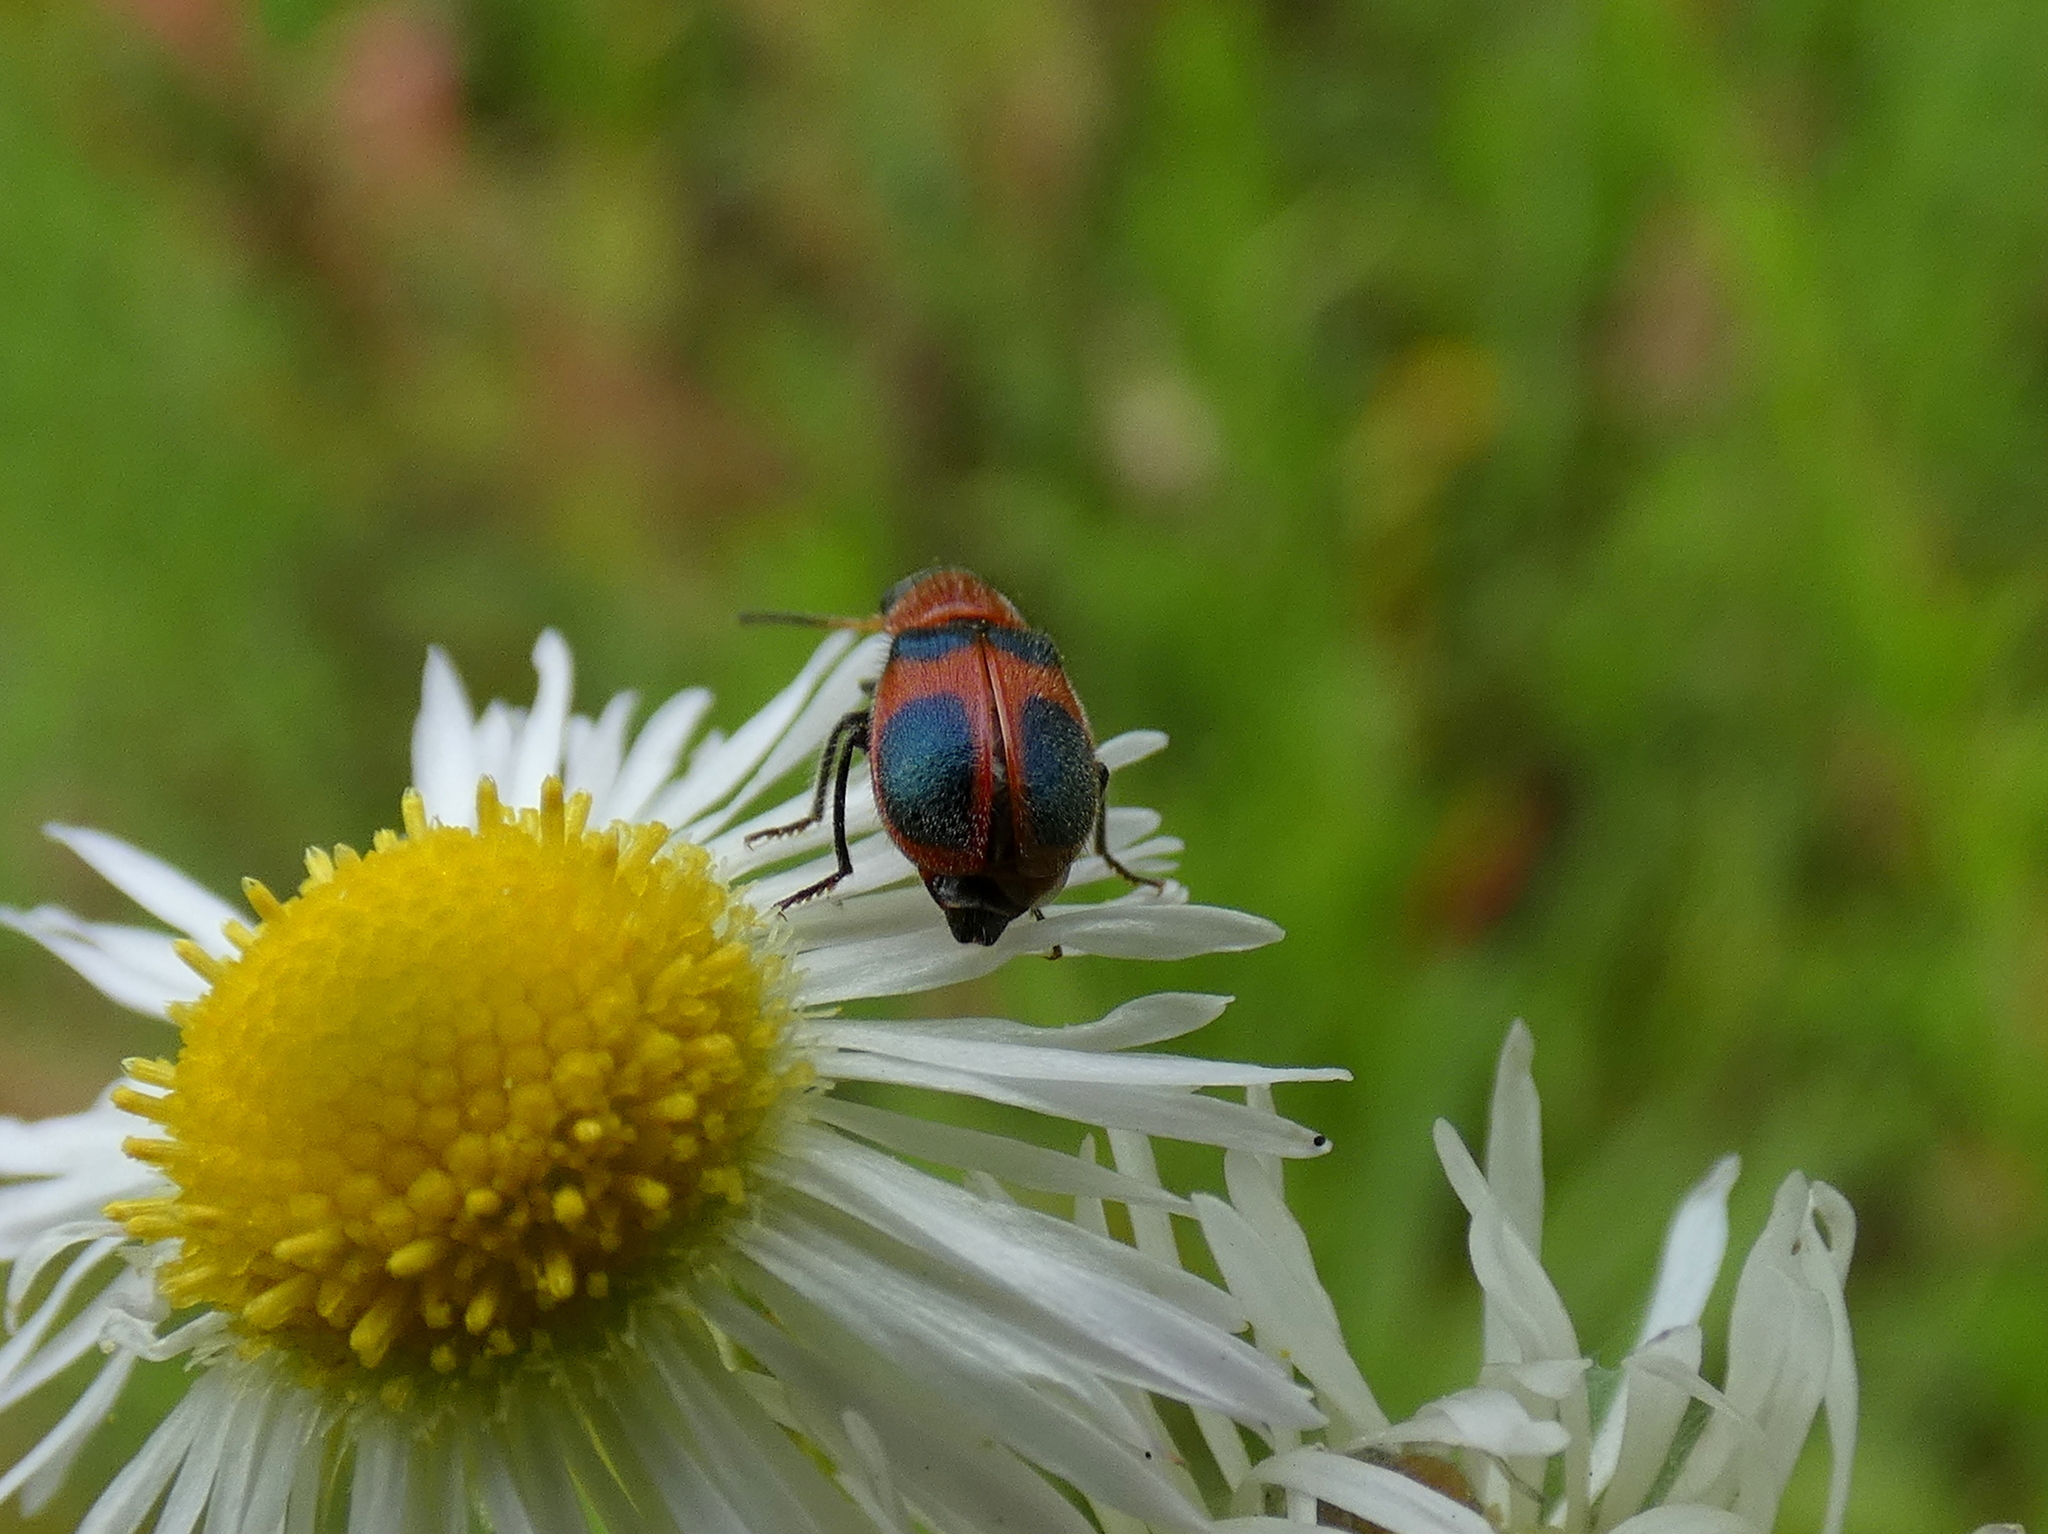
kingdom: Animalia
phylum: Arthropoda
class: Insecta
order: Coleoptera
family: Melyridae
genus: Collops
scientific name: Collops quadrimaculatus
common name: Four-spotted collops
